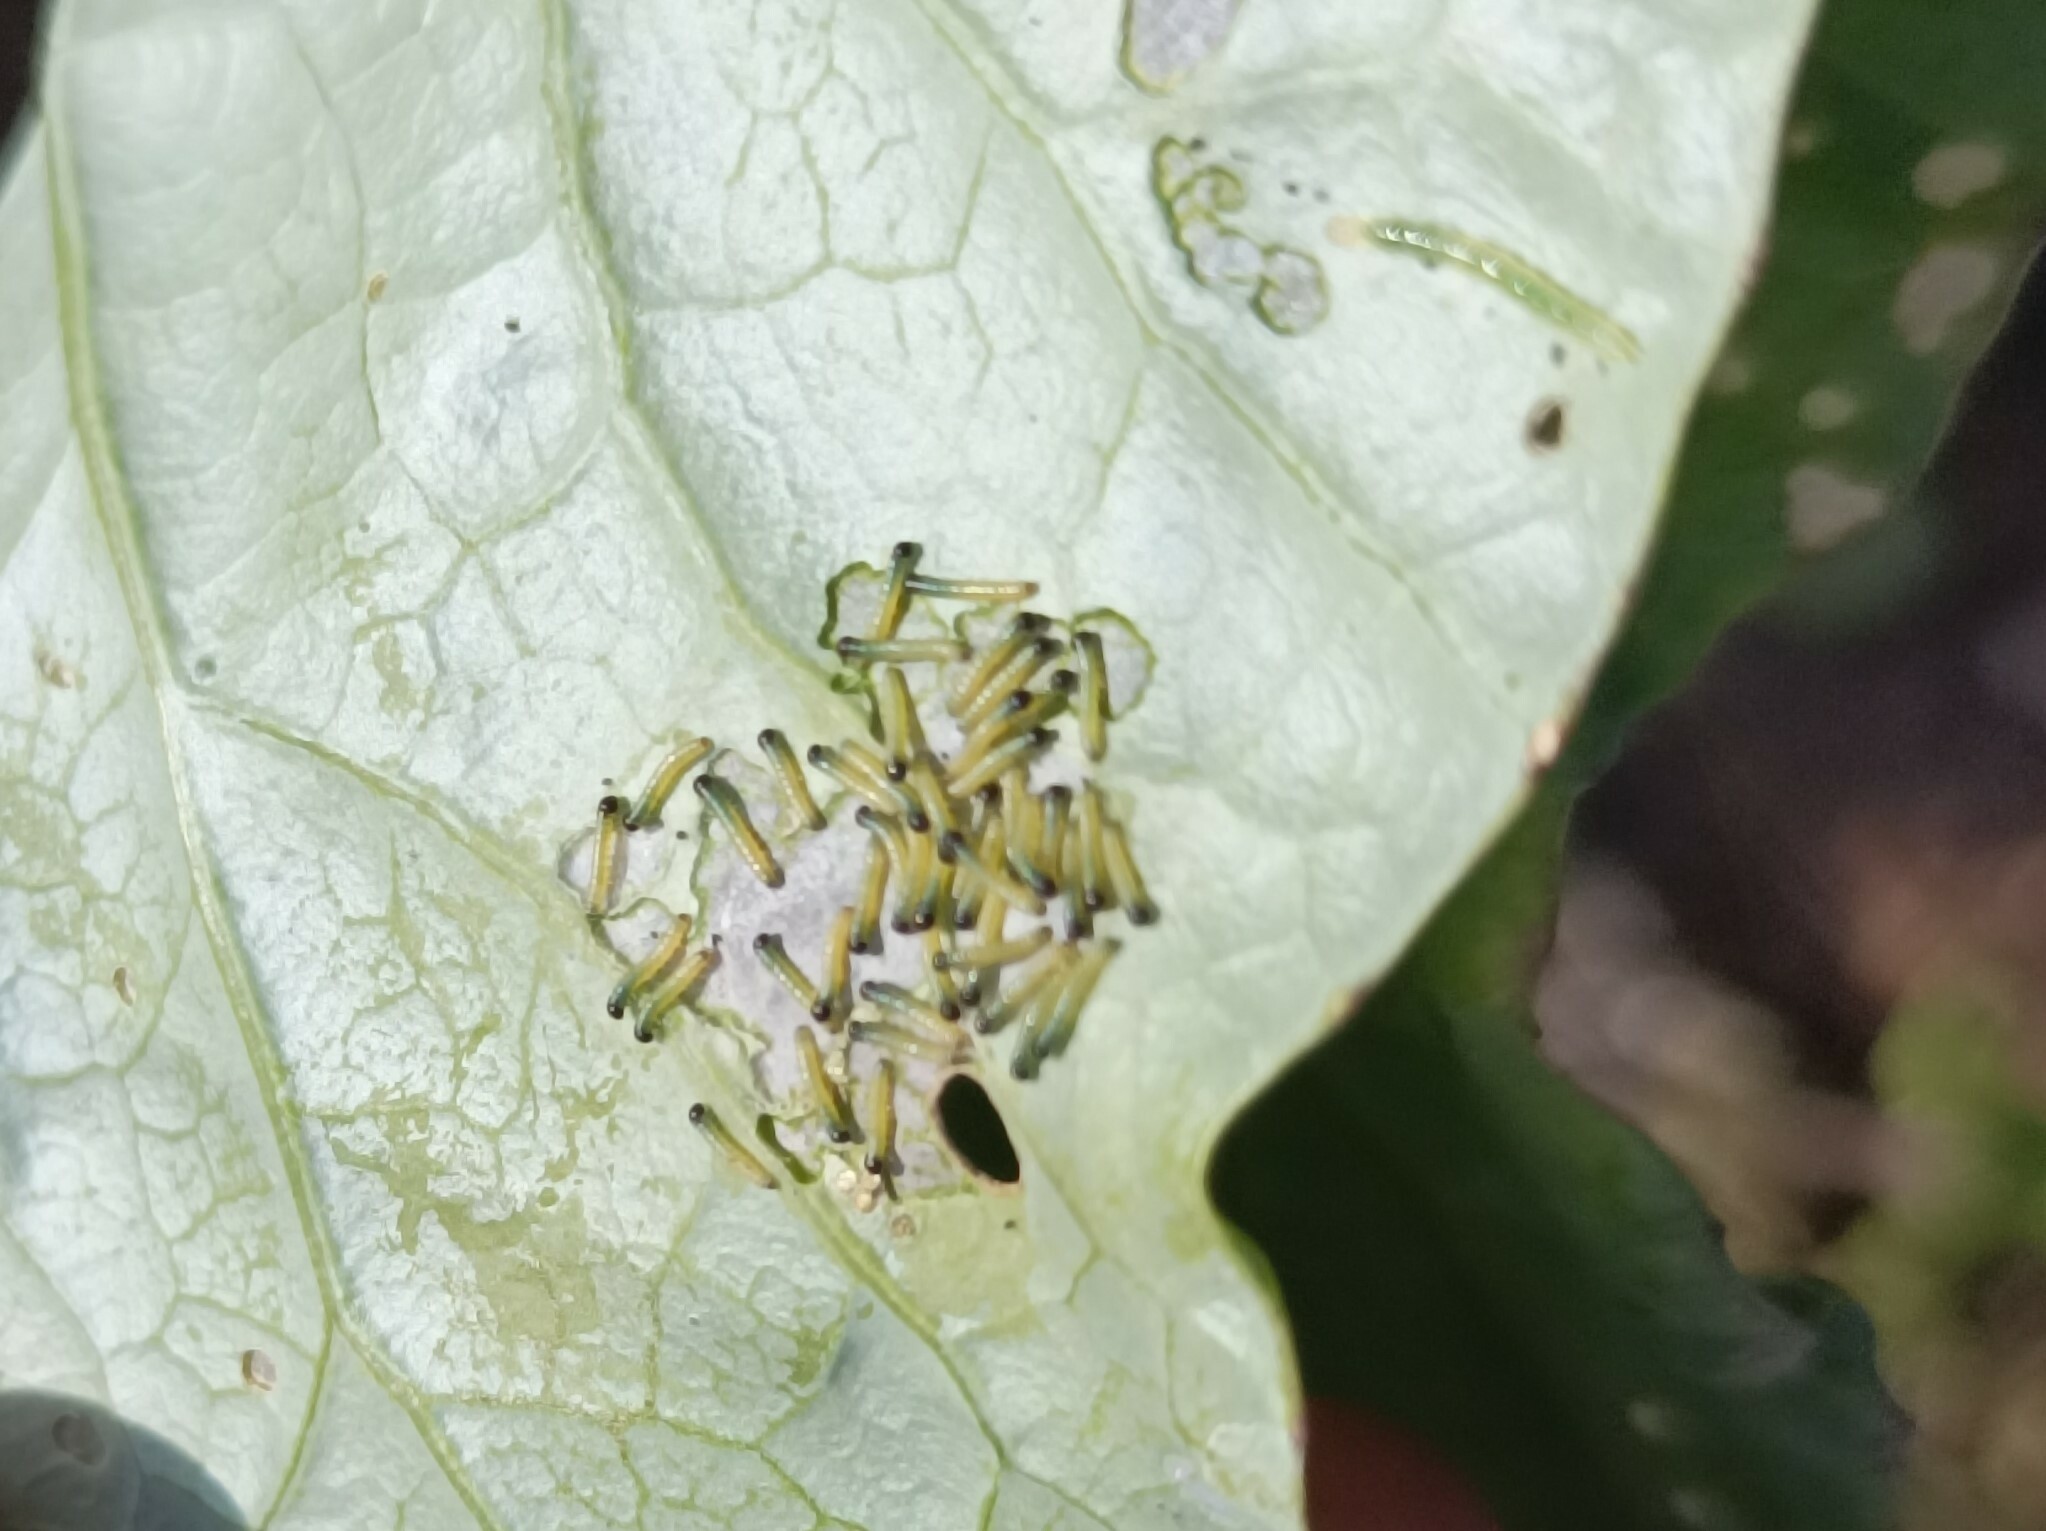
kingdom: Animalia
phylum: Arthropoda
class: Insecta
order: Lepidoptera
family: Pieridae
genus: Pieris
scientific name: Pieris brassicae
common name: Large white
